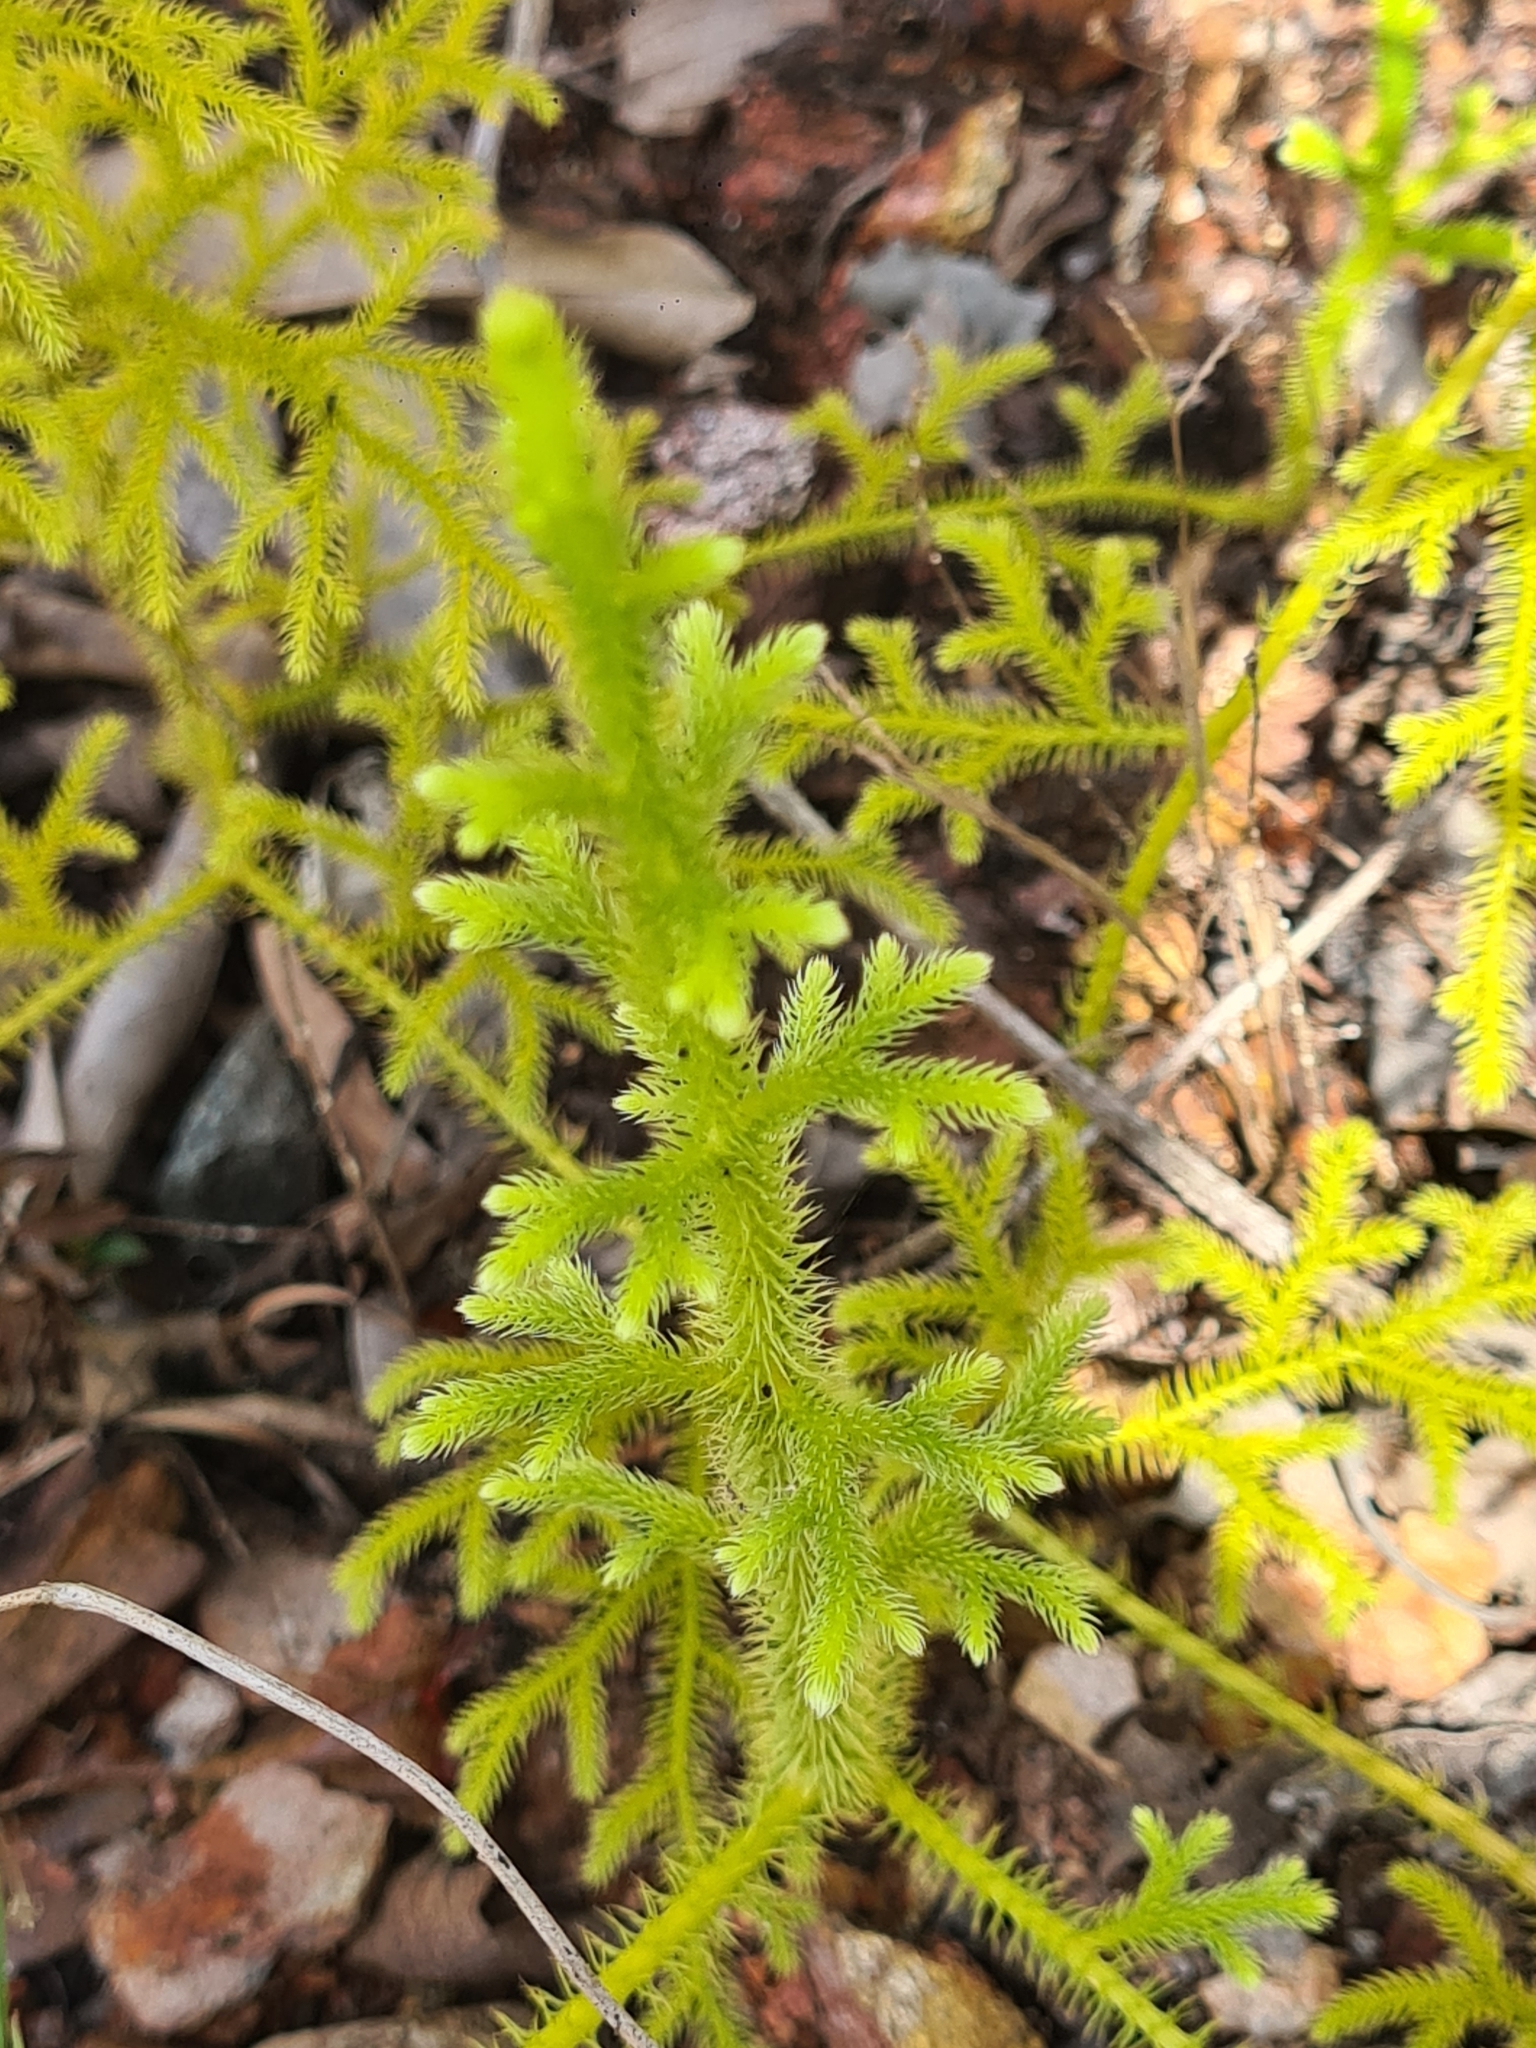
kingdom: Plantae
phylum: Tracheophyta
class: Lycopodiopsida
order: Lycopodiales
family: Lycopodiaceae
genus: Palhinhaea
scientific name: Palhinhaea cernua
